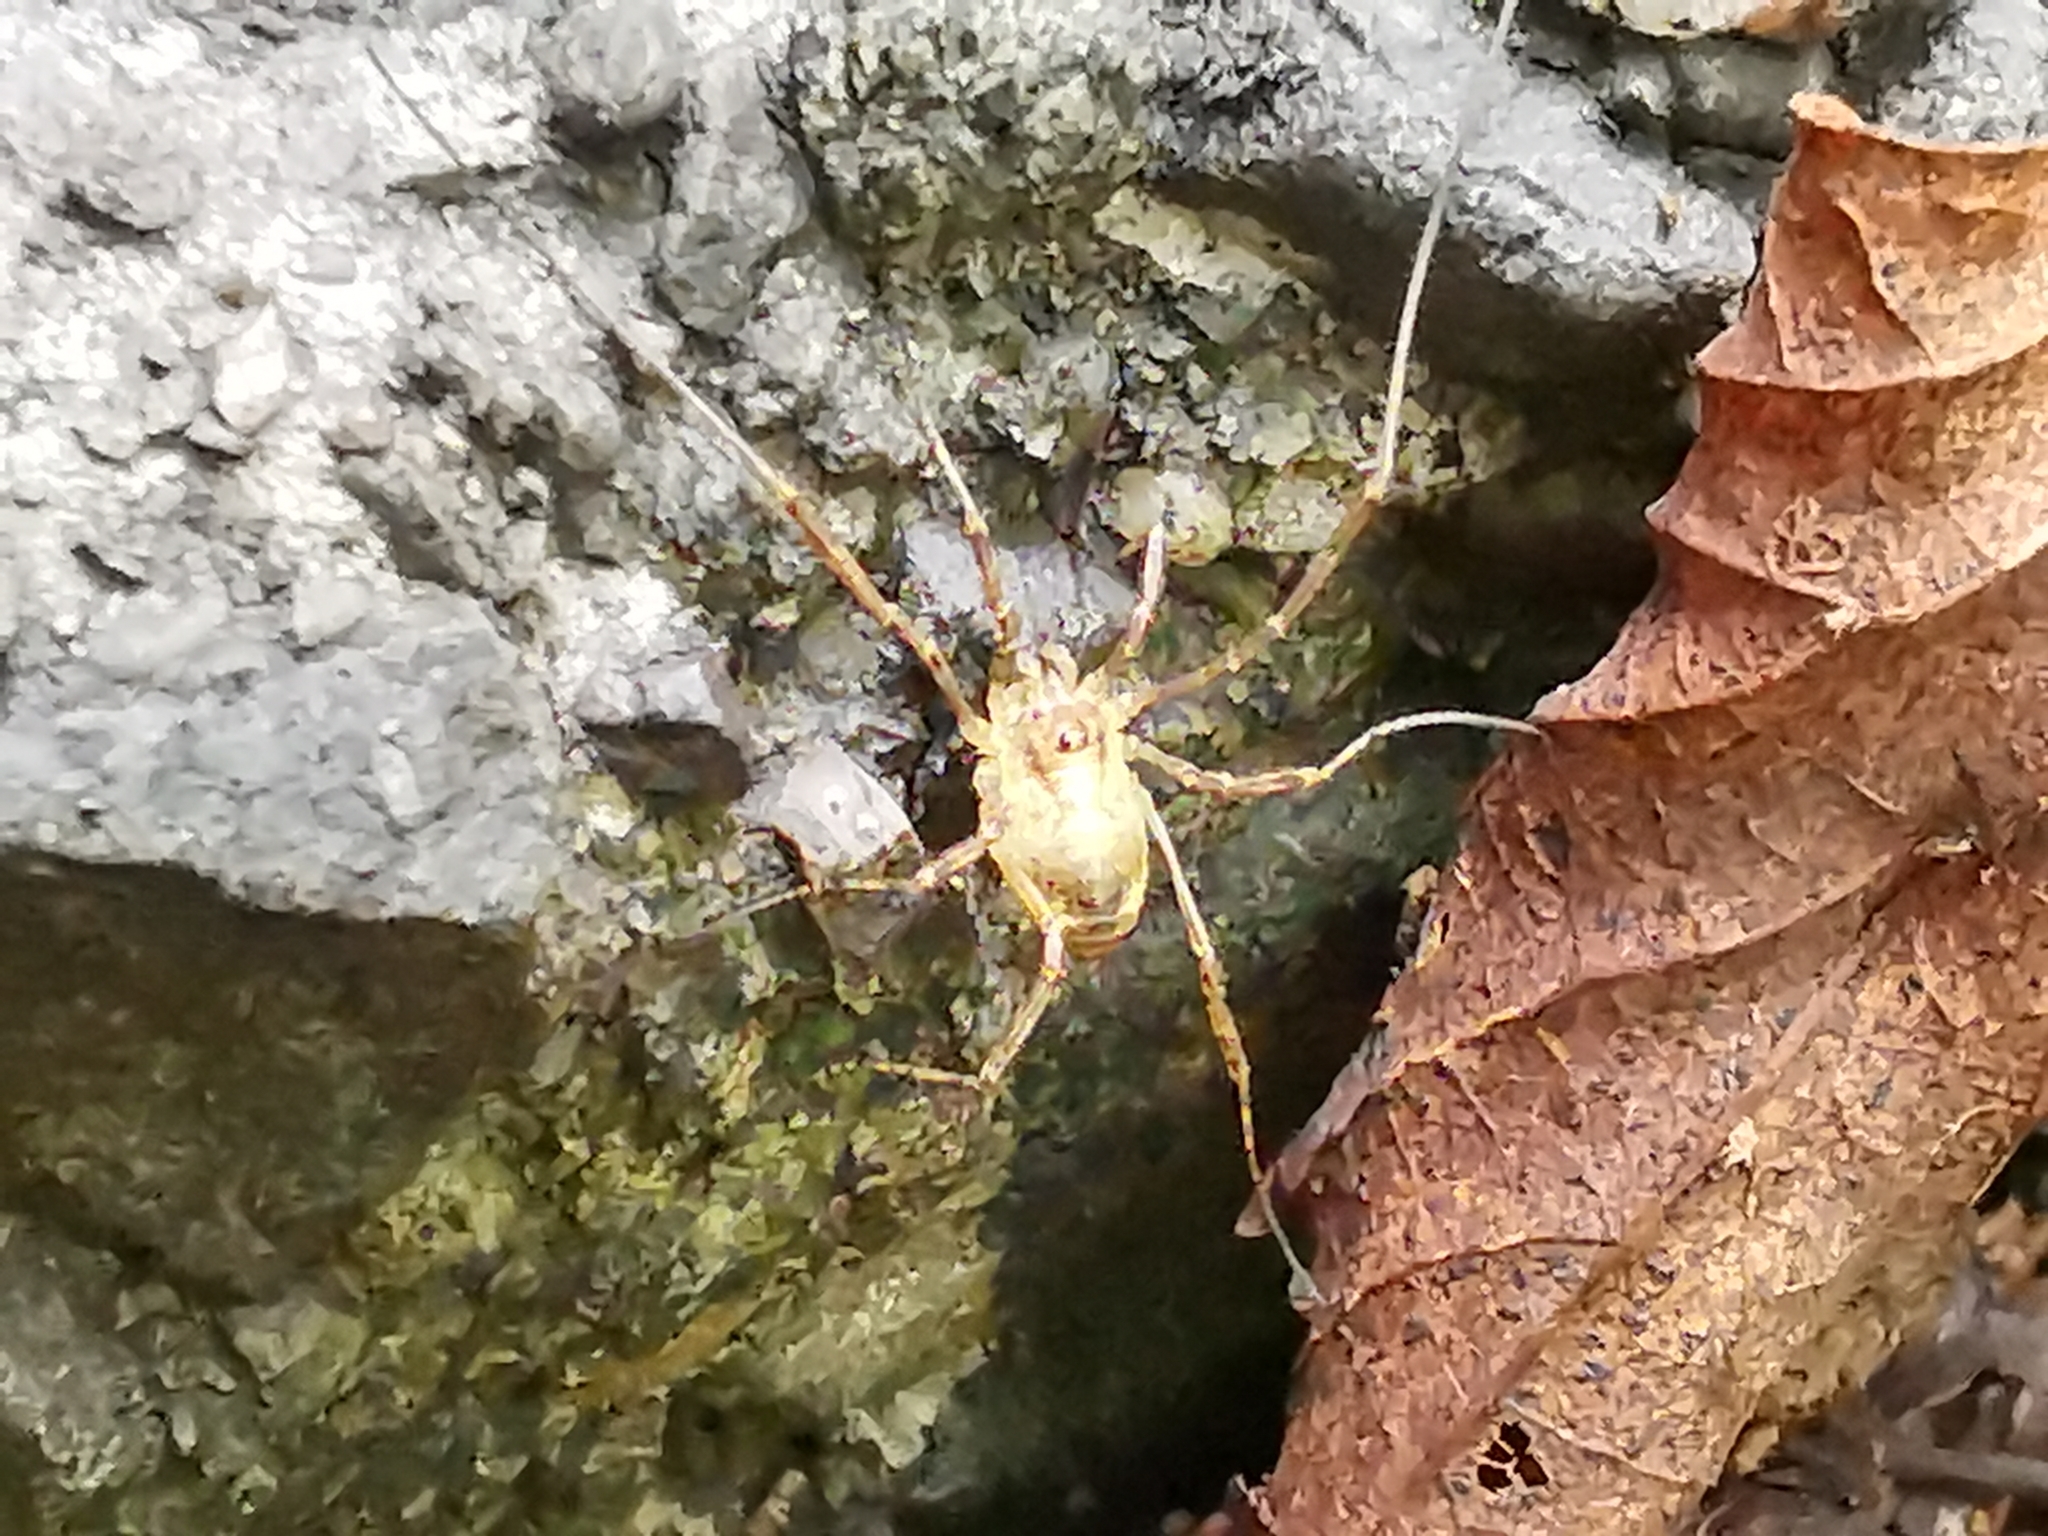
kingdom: Animalia
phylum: Arthropoda
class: Arachnida
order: Opiliones
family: Phalangiidae
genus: Paroligolophus
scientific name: Paroligolophus agrestis
